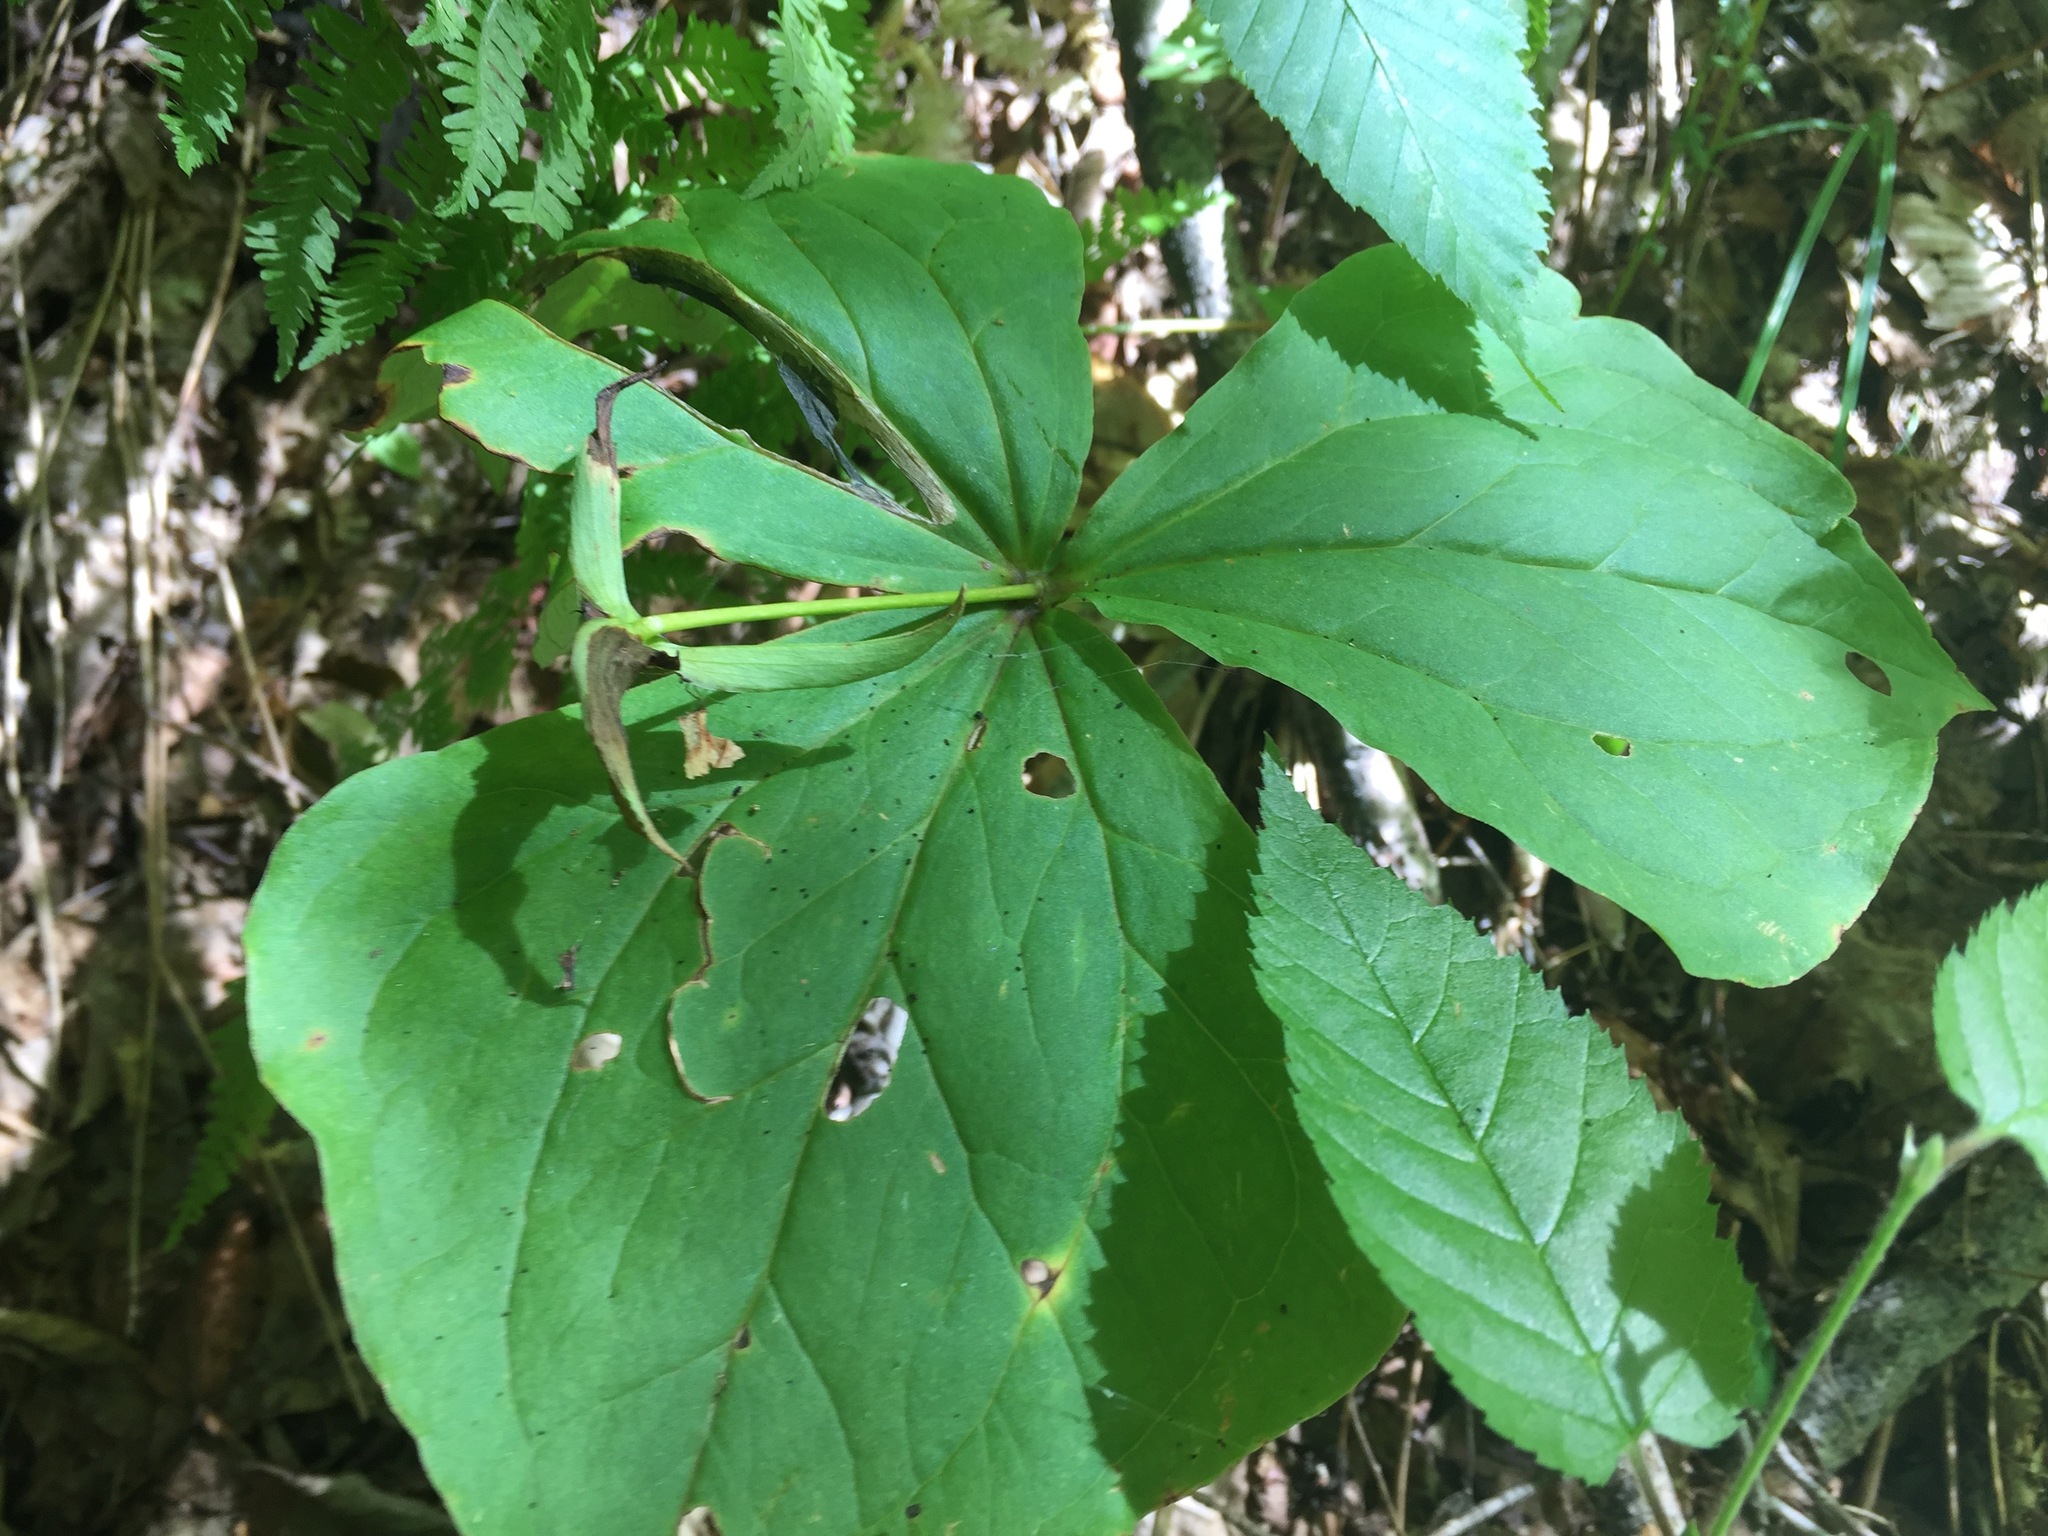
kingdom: Plantae
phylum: Tracheophyta
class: Liliopsida
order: Liliales
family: Melanthiaceae
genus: Trillium
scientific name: Trillium erectum
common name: Purple trillium
